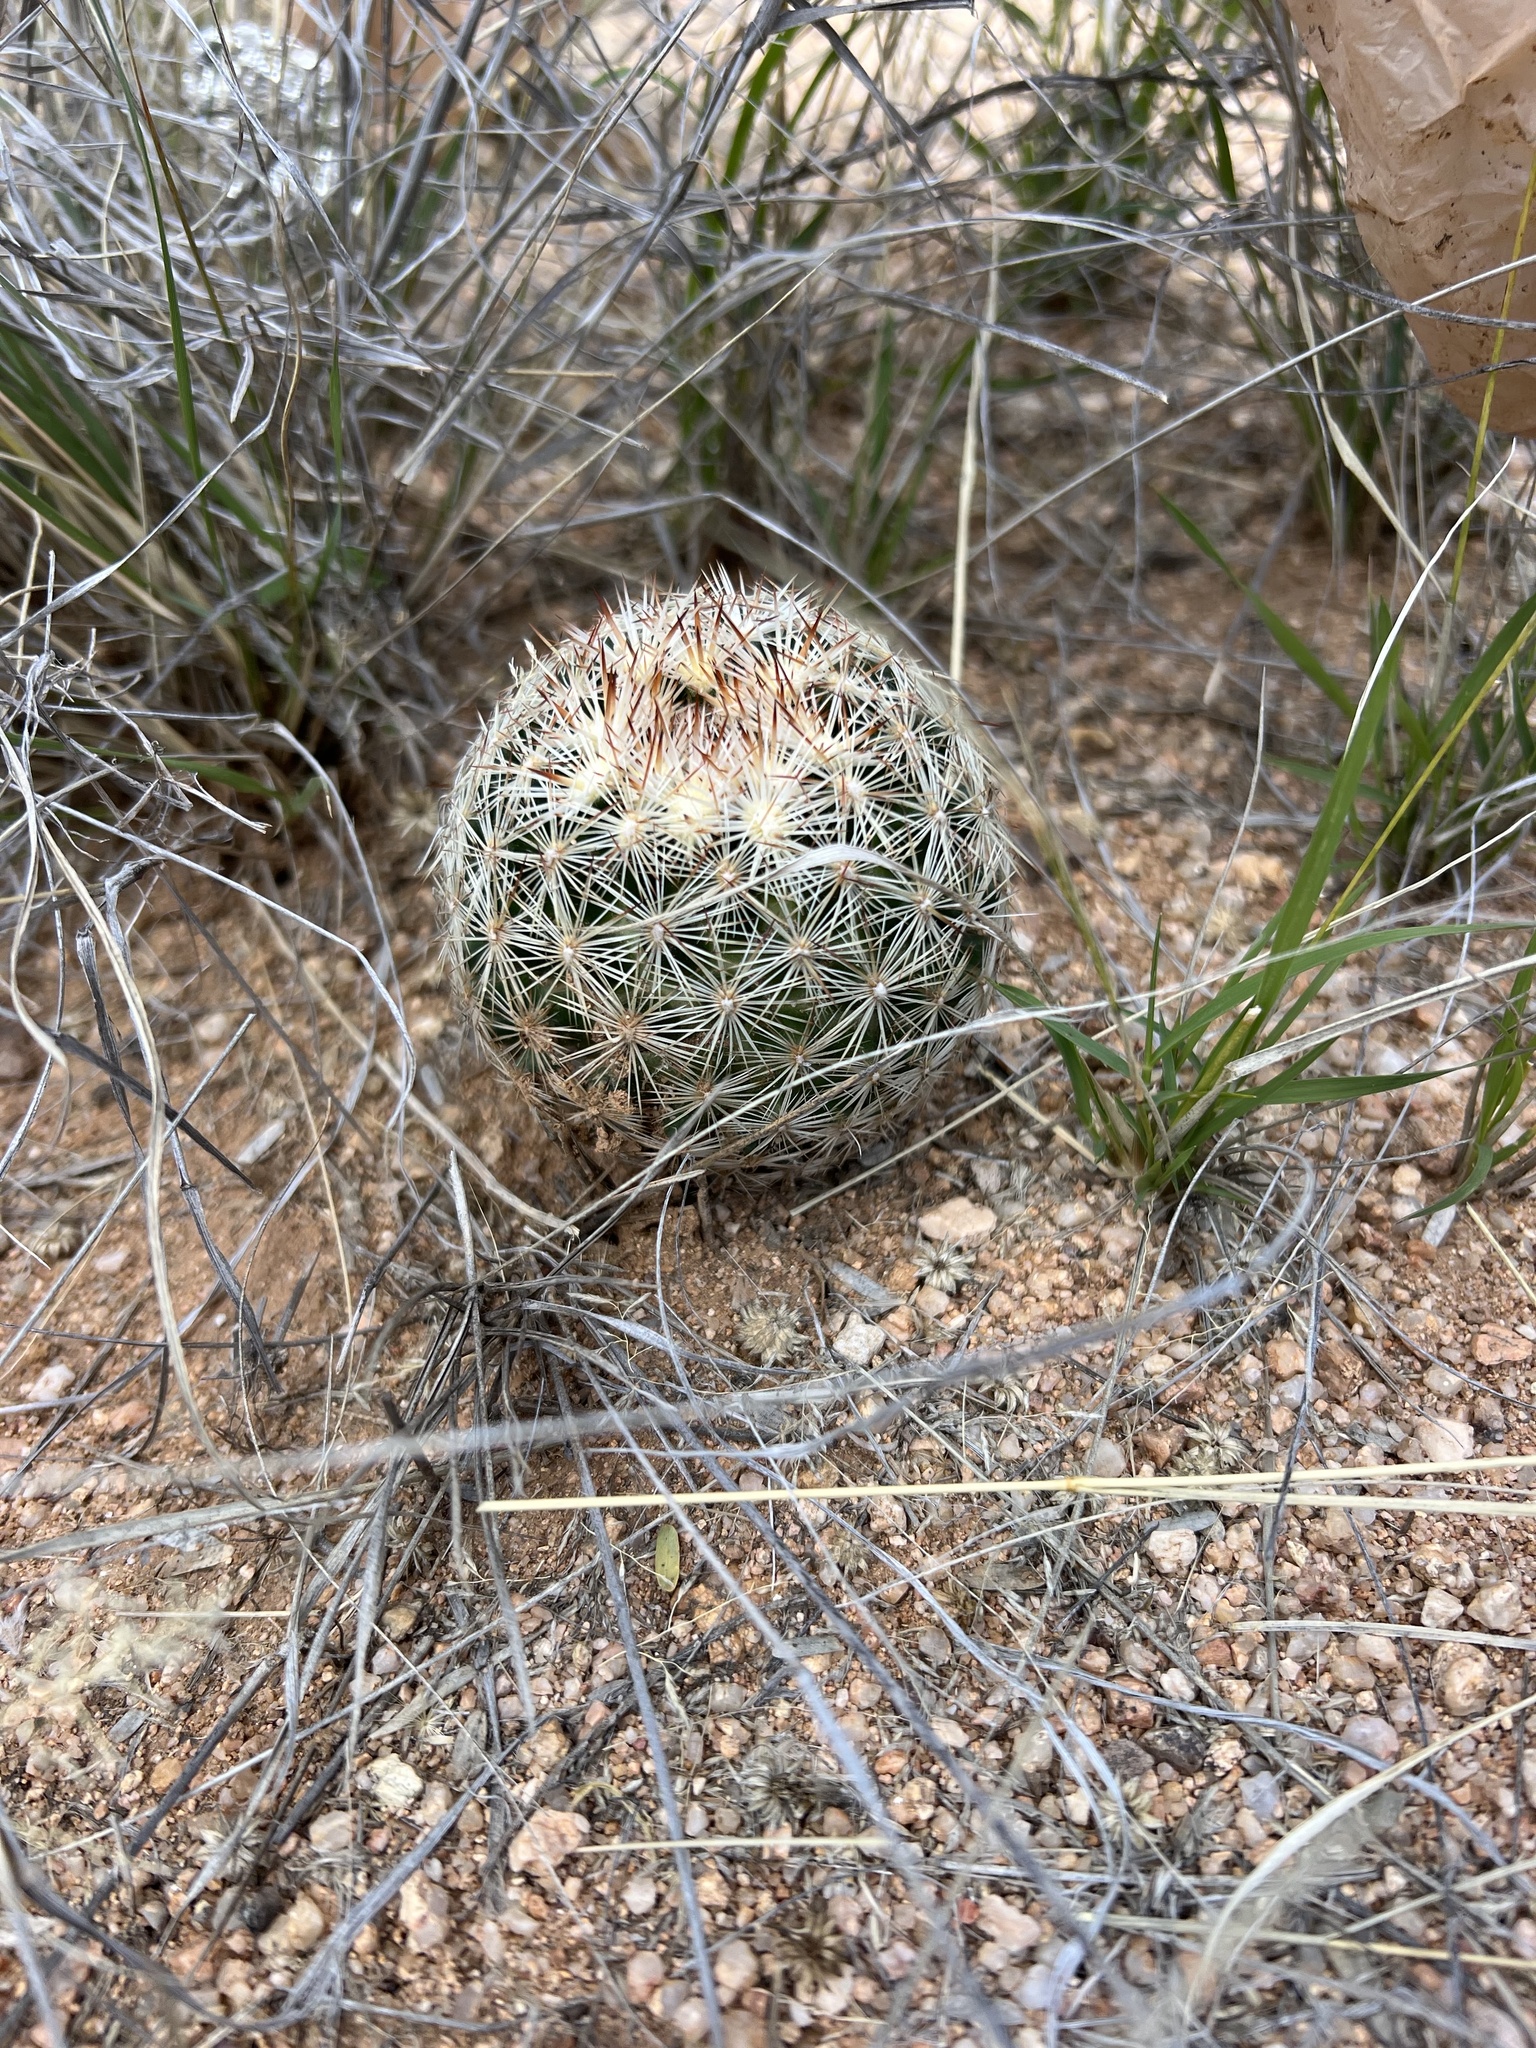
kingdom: Plantae
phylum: Tracheophyta
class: Magnoliopsida
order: Caryophyllales
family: Cactaceae
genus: Pelecyphora
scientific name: Pelecyphora vivipara
